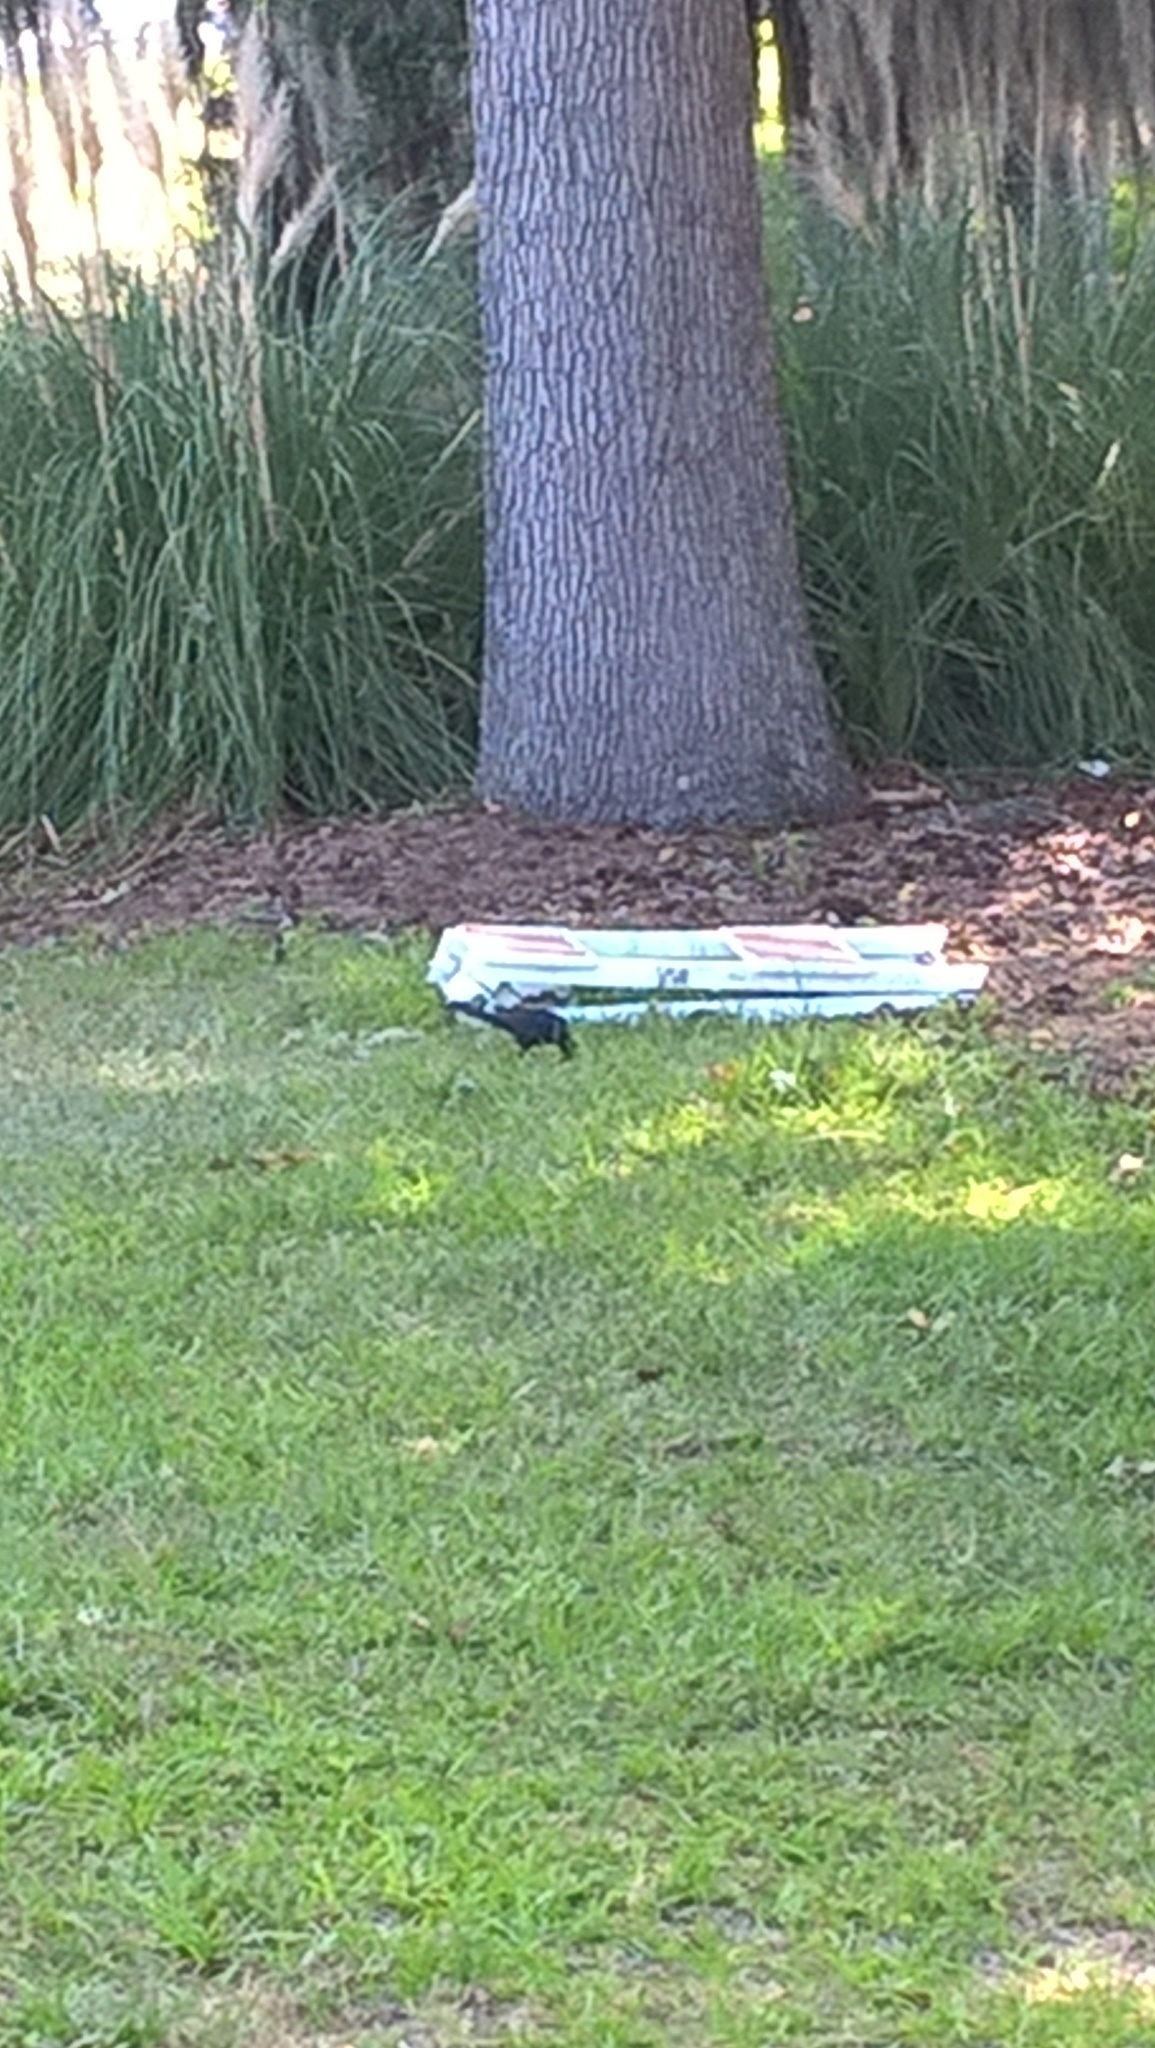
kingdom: Animalia
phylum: Chordata
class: Aves
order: Passeriformes
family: Icteridae
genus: Quiscalus
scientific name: Quiscalus major
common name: Boat-tailed grackle
